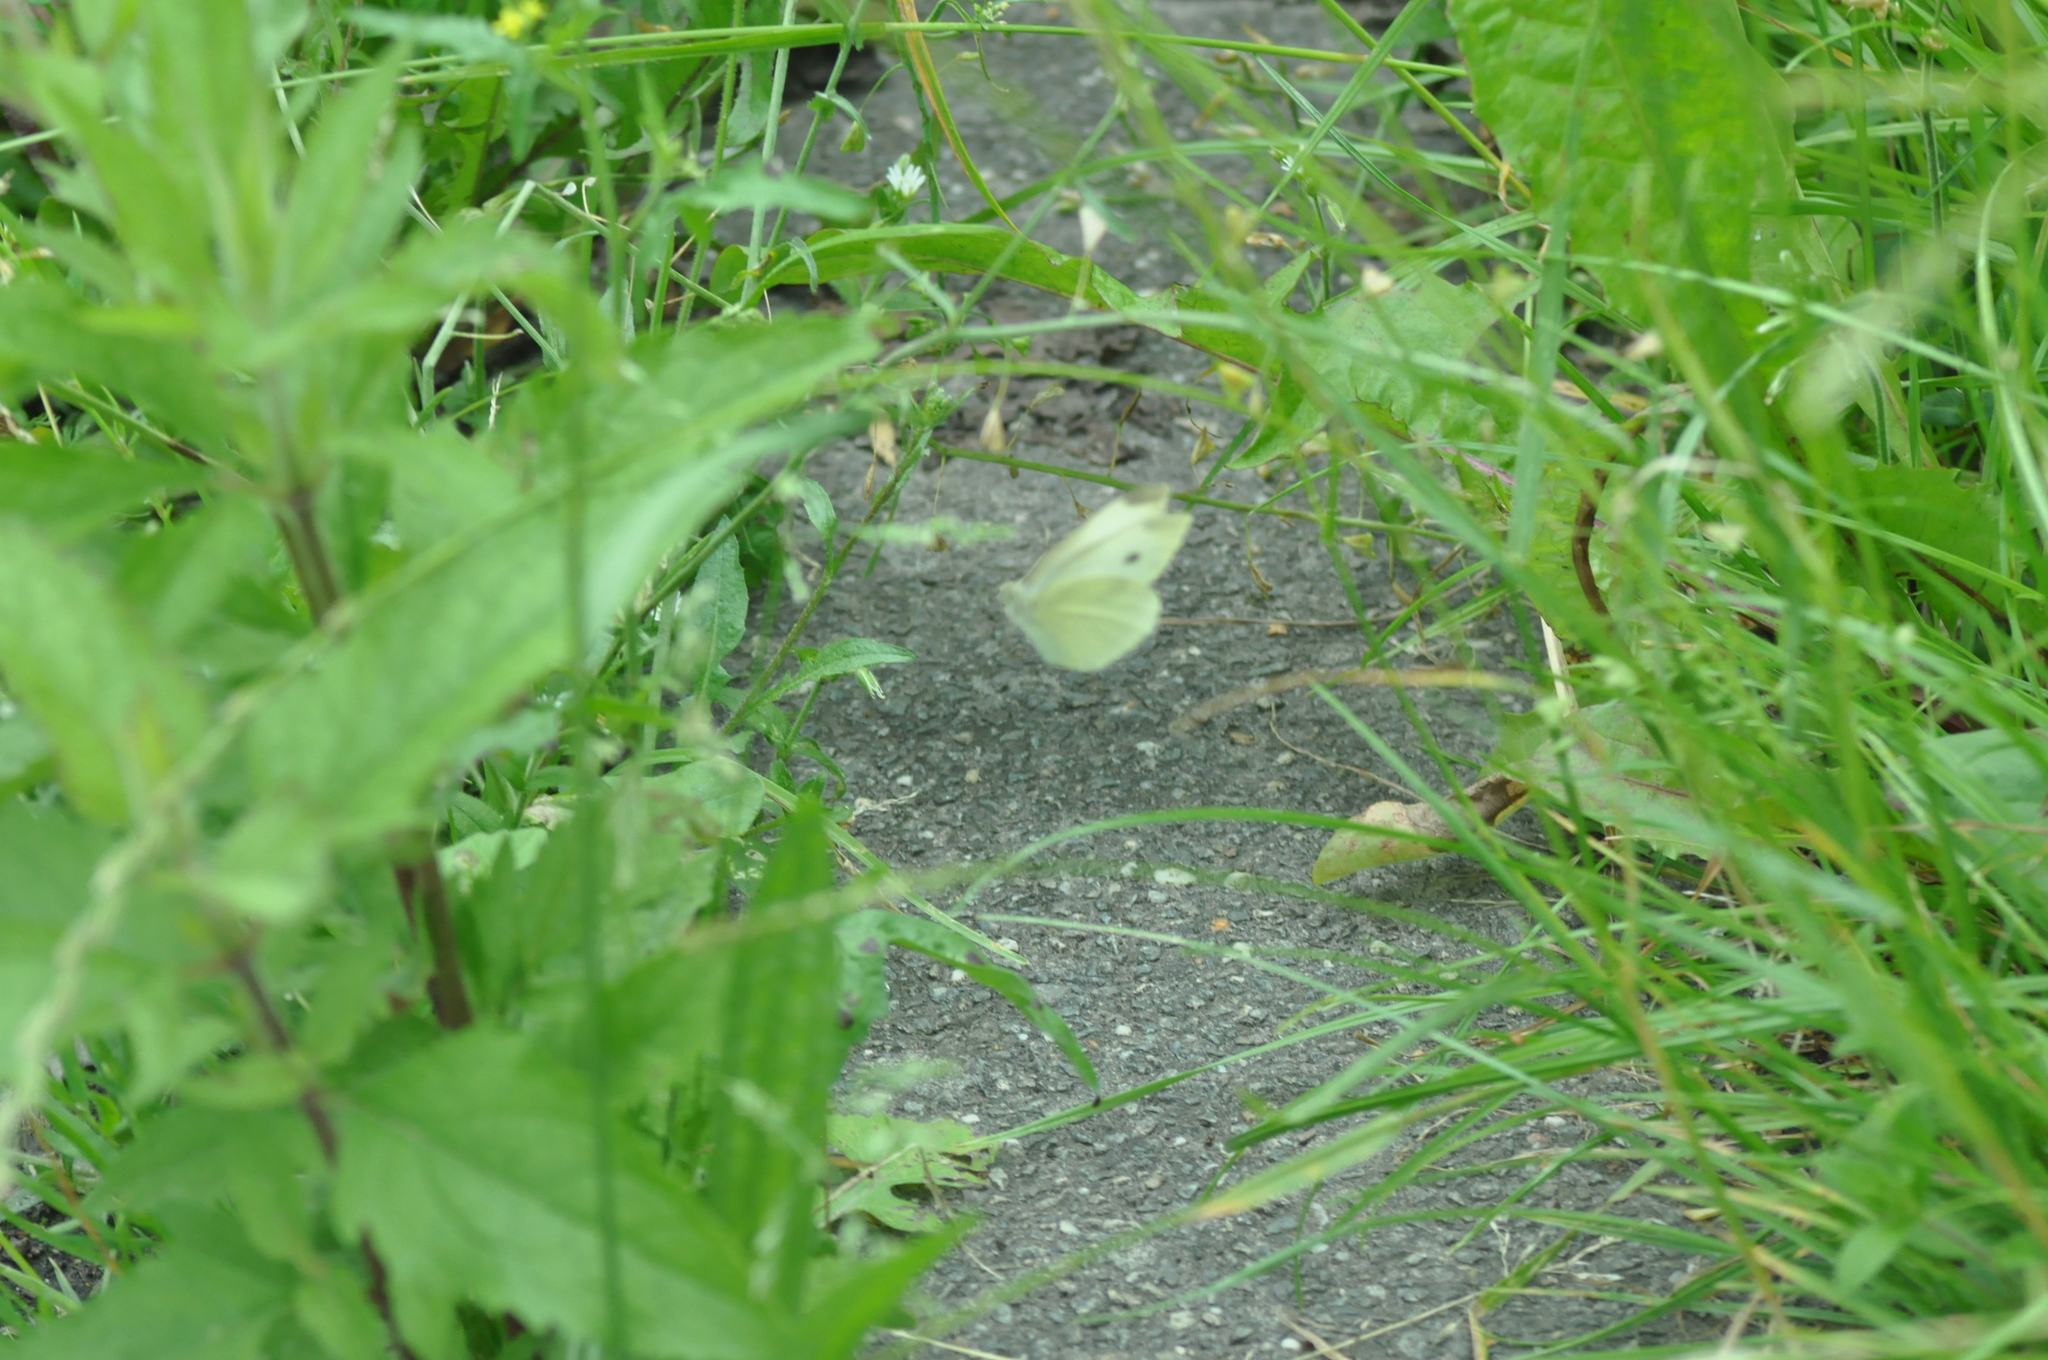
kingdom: Animalia
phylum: Arthropoda
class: Insecta
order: Lepidoptera
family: Pieridae
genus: Pieris
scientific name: Pieris rapae
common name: Small white
